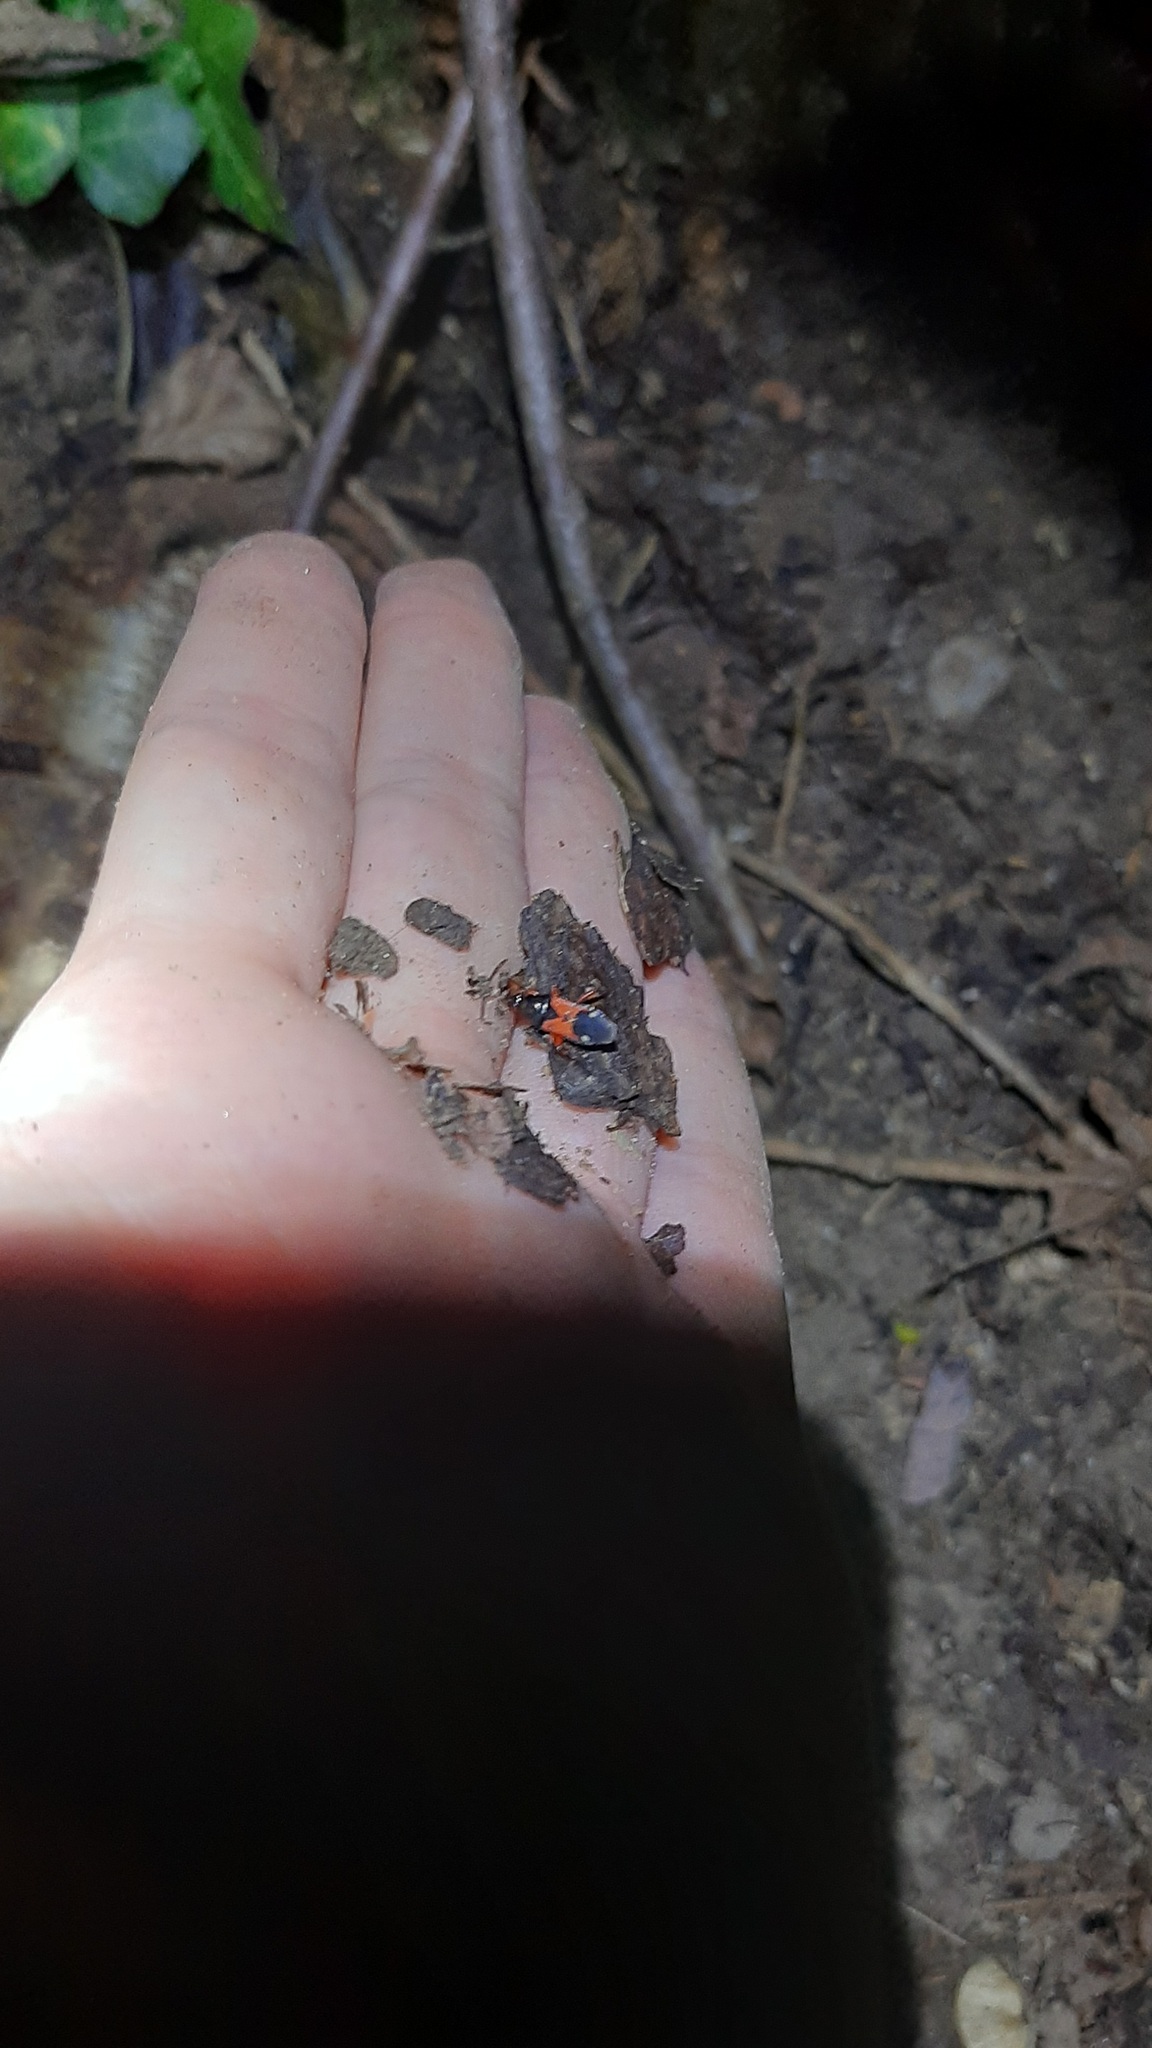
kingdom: Animalia
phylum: Arthropoda
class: Insecta
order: Hemiptera
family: Nabidae
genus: Prostemma
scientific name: Prostemma guttula
